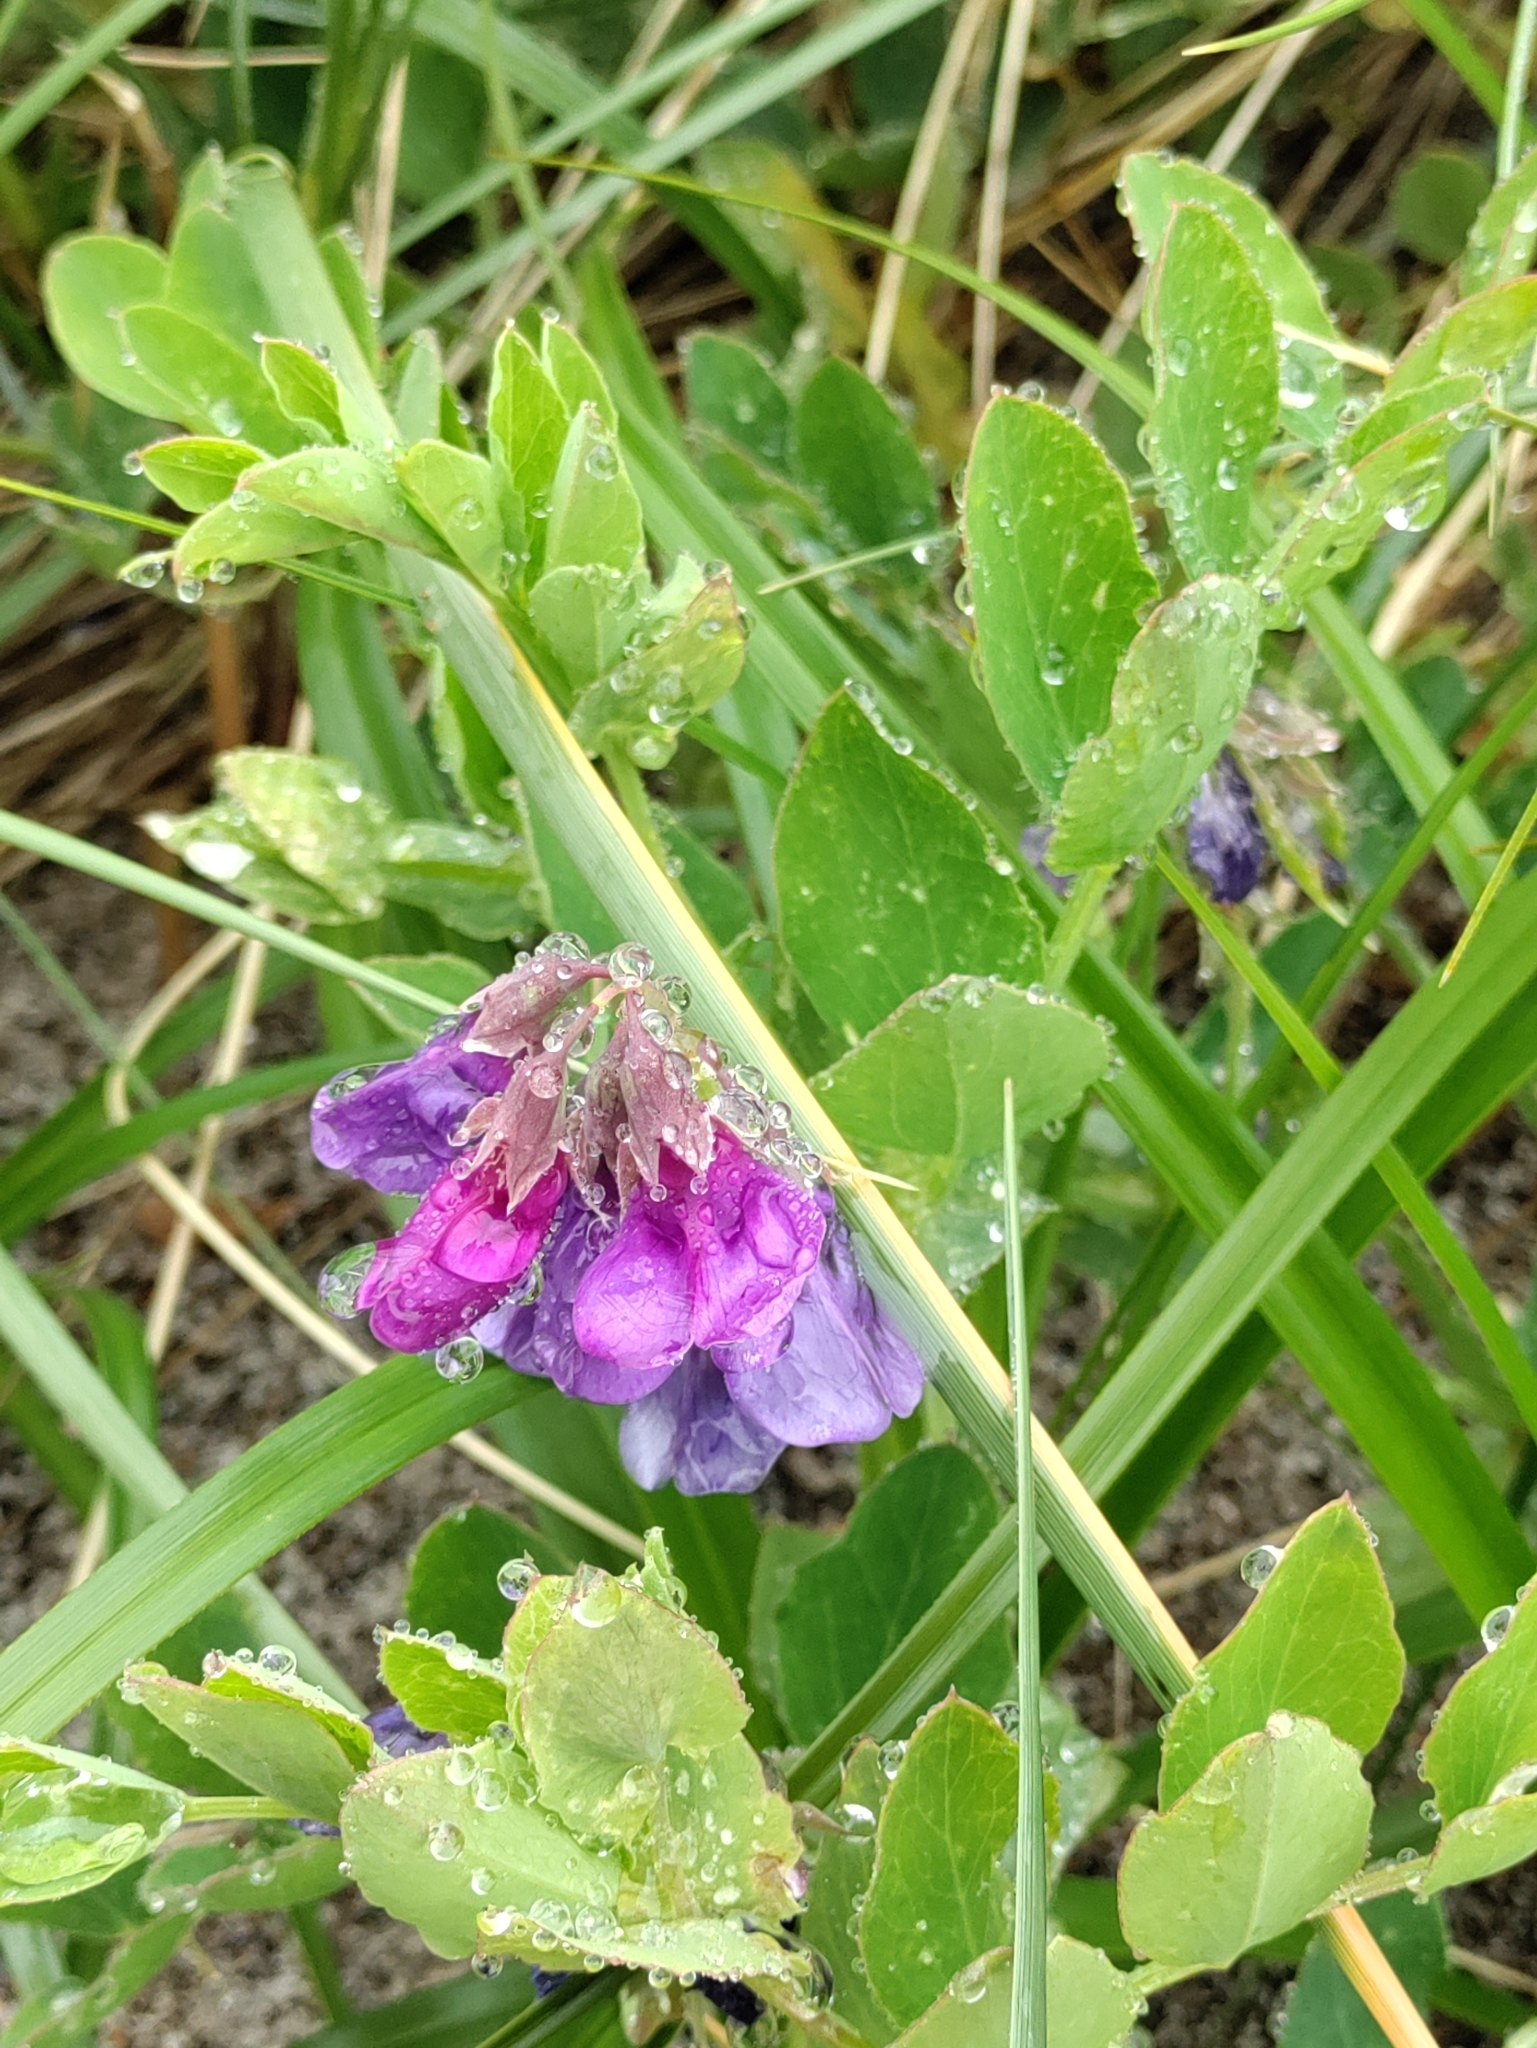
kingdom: Plantae
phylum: Tracheophyta
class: Magnoliopsida
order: Fabales
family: Fabaceae
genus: Lathyrus
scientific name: Lathyrus japonicus
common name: Sea pea
